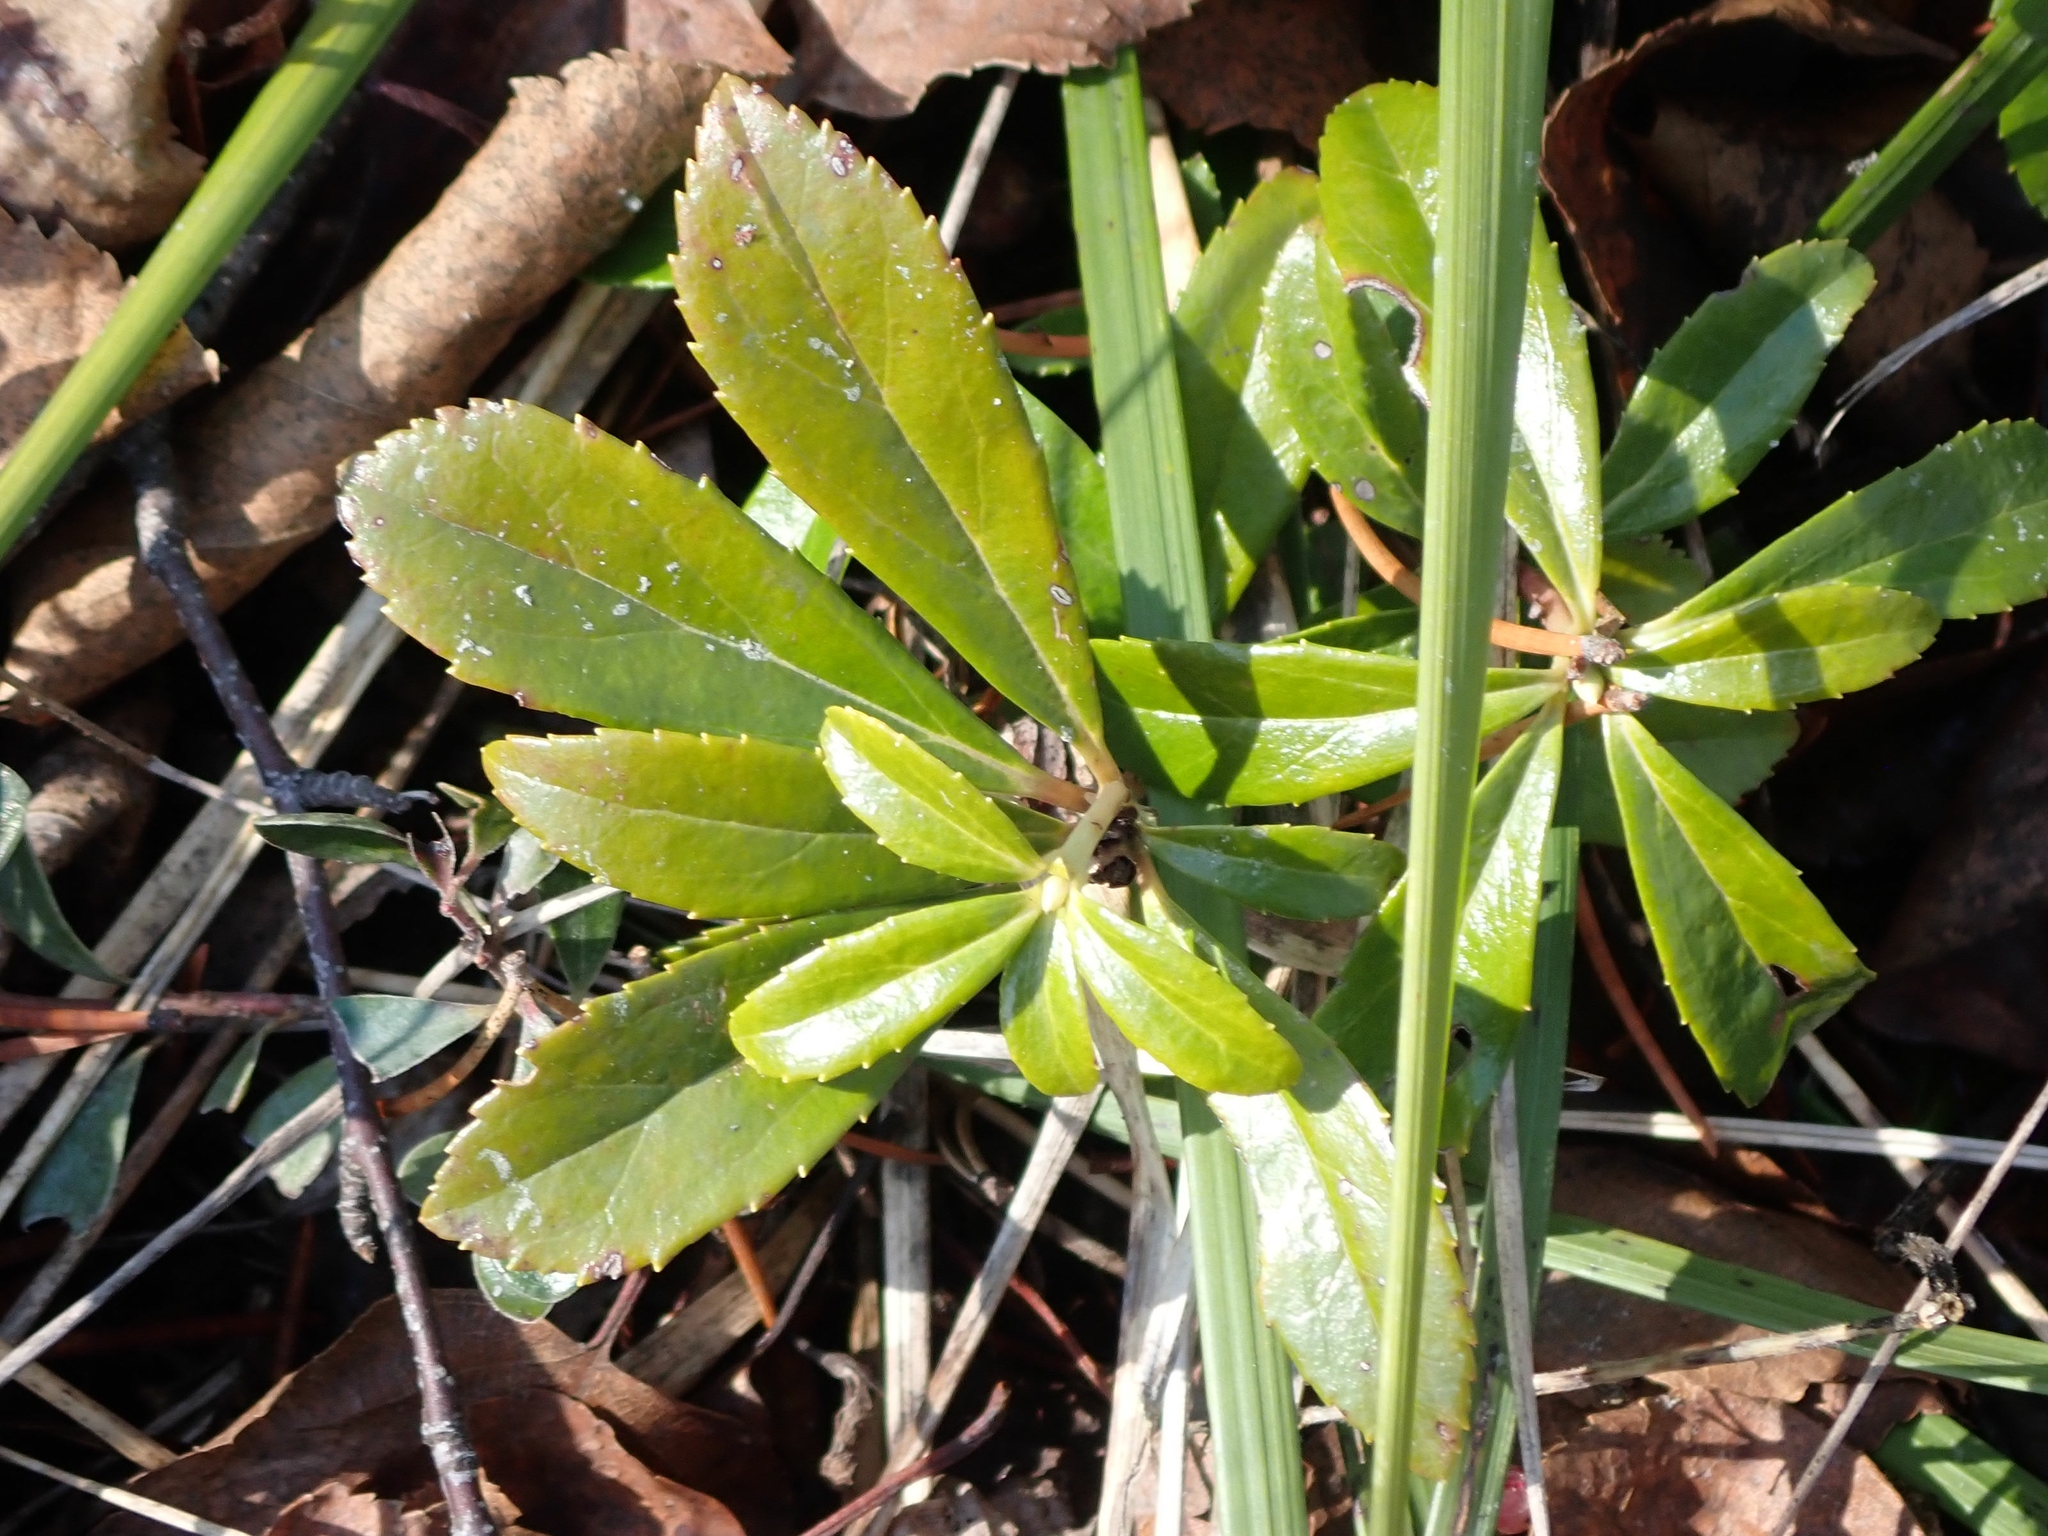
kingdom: Plantae
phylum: Tracheophyta
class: Magnoliopsida
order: Ericales
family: Ericaceae
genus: Chimaphila
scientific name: Chimaphila umbellata
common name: Pipsissewa
